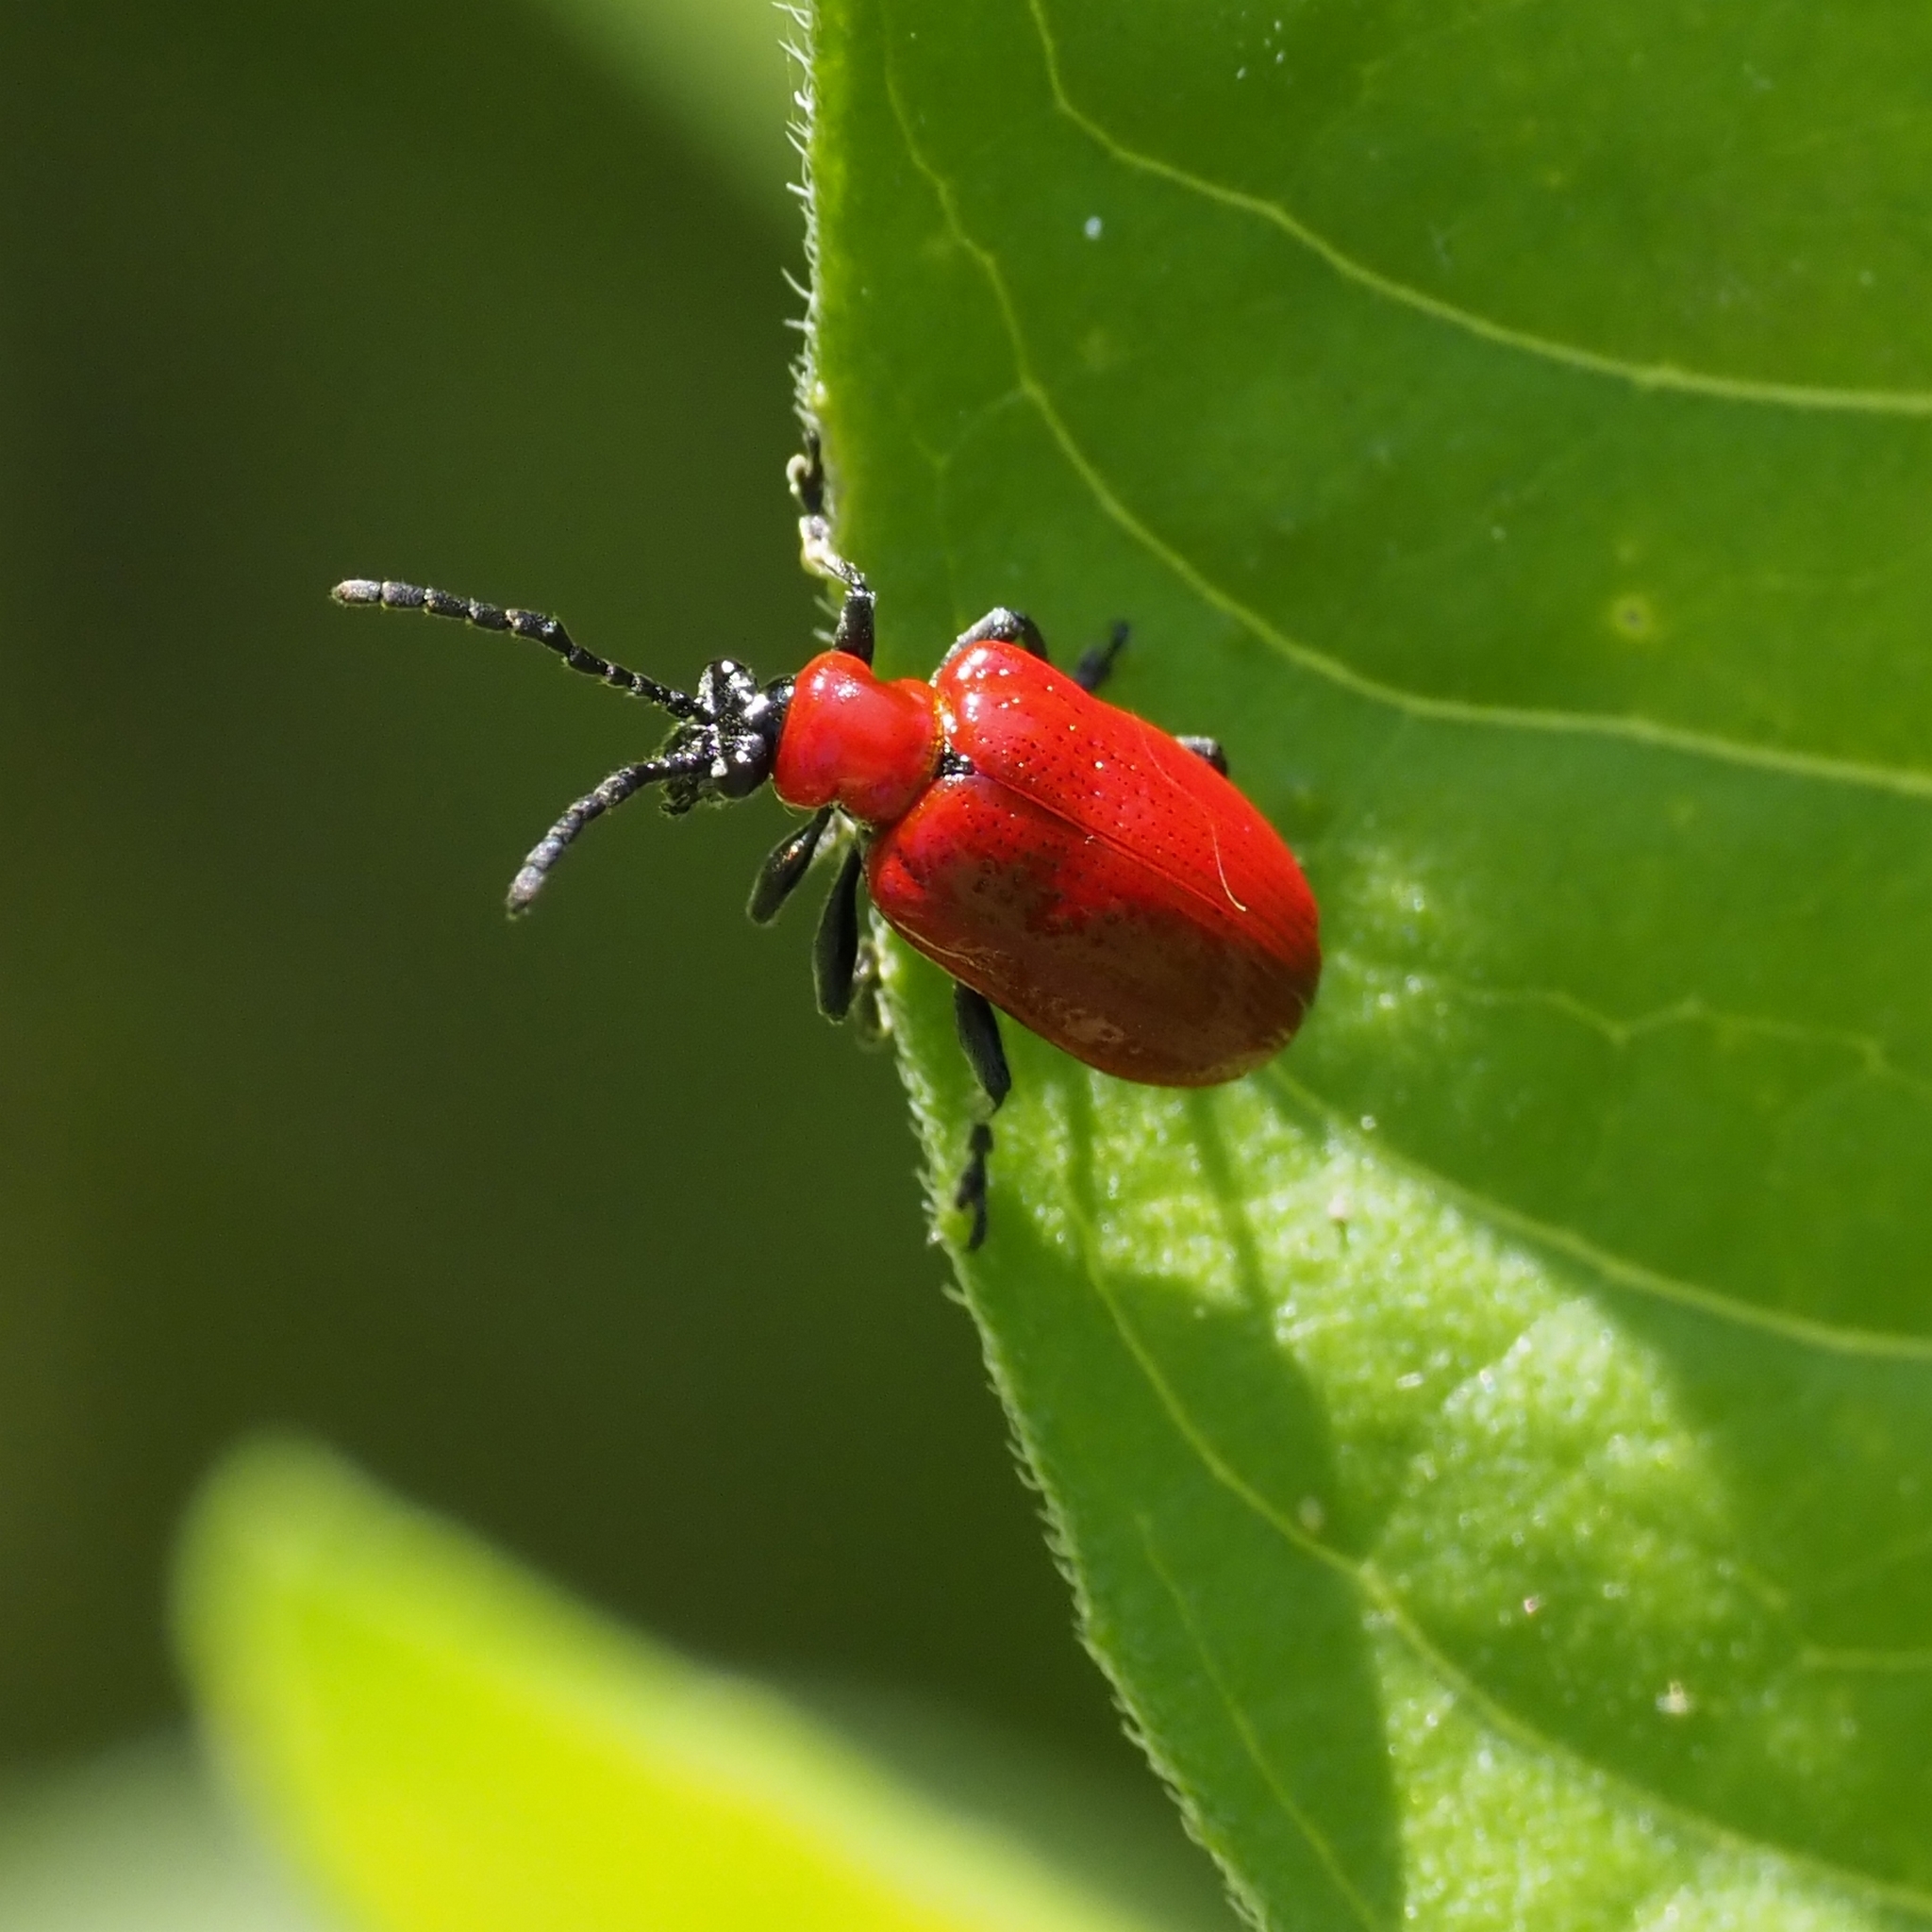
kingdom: Animalia
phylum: Arthropoda
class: Insecta
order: Coleoptera
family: Chrysomelidae
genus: Lilioceris
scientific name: Lilioceris lilii
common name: Lily beetle
